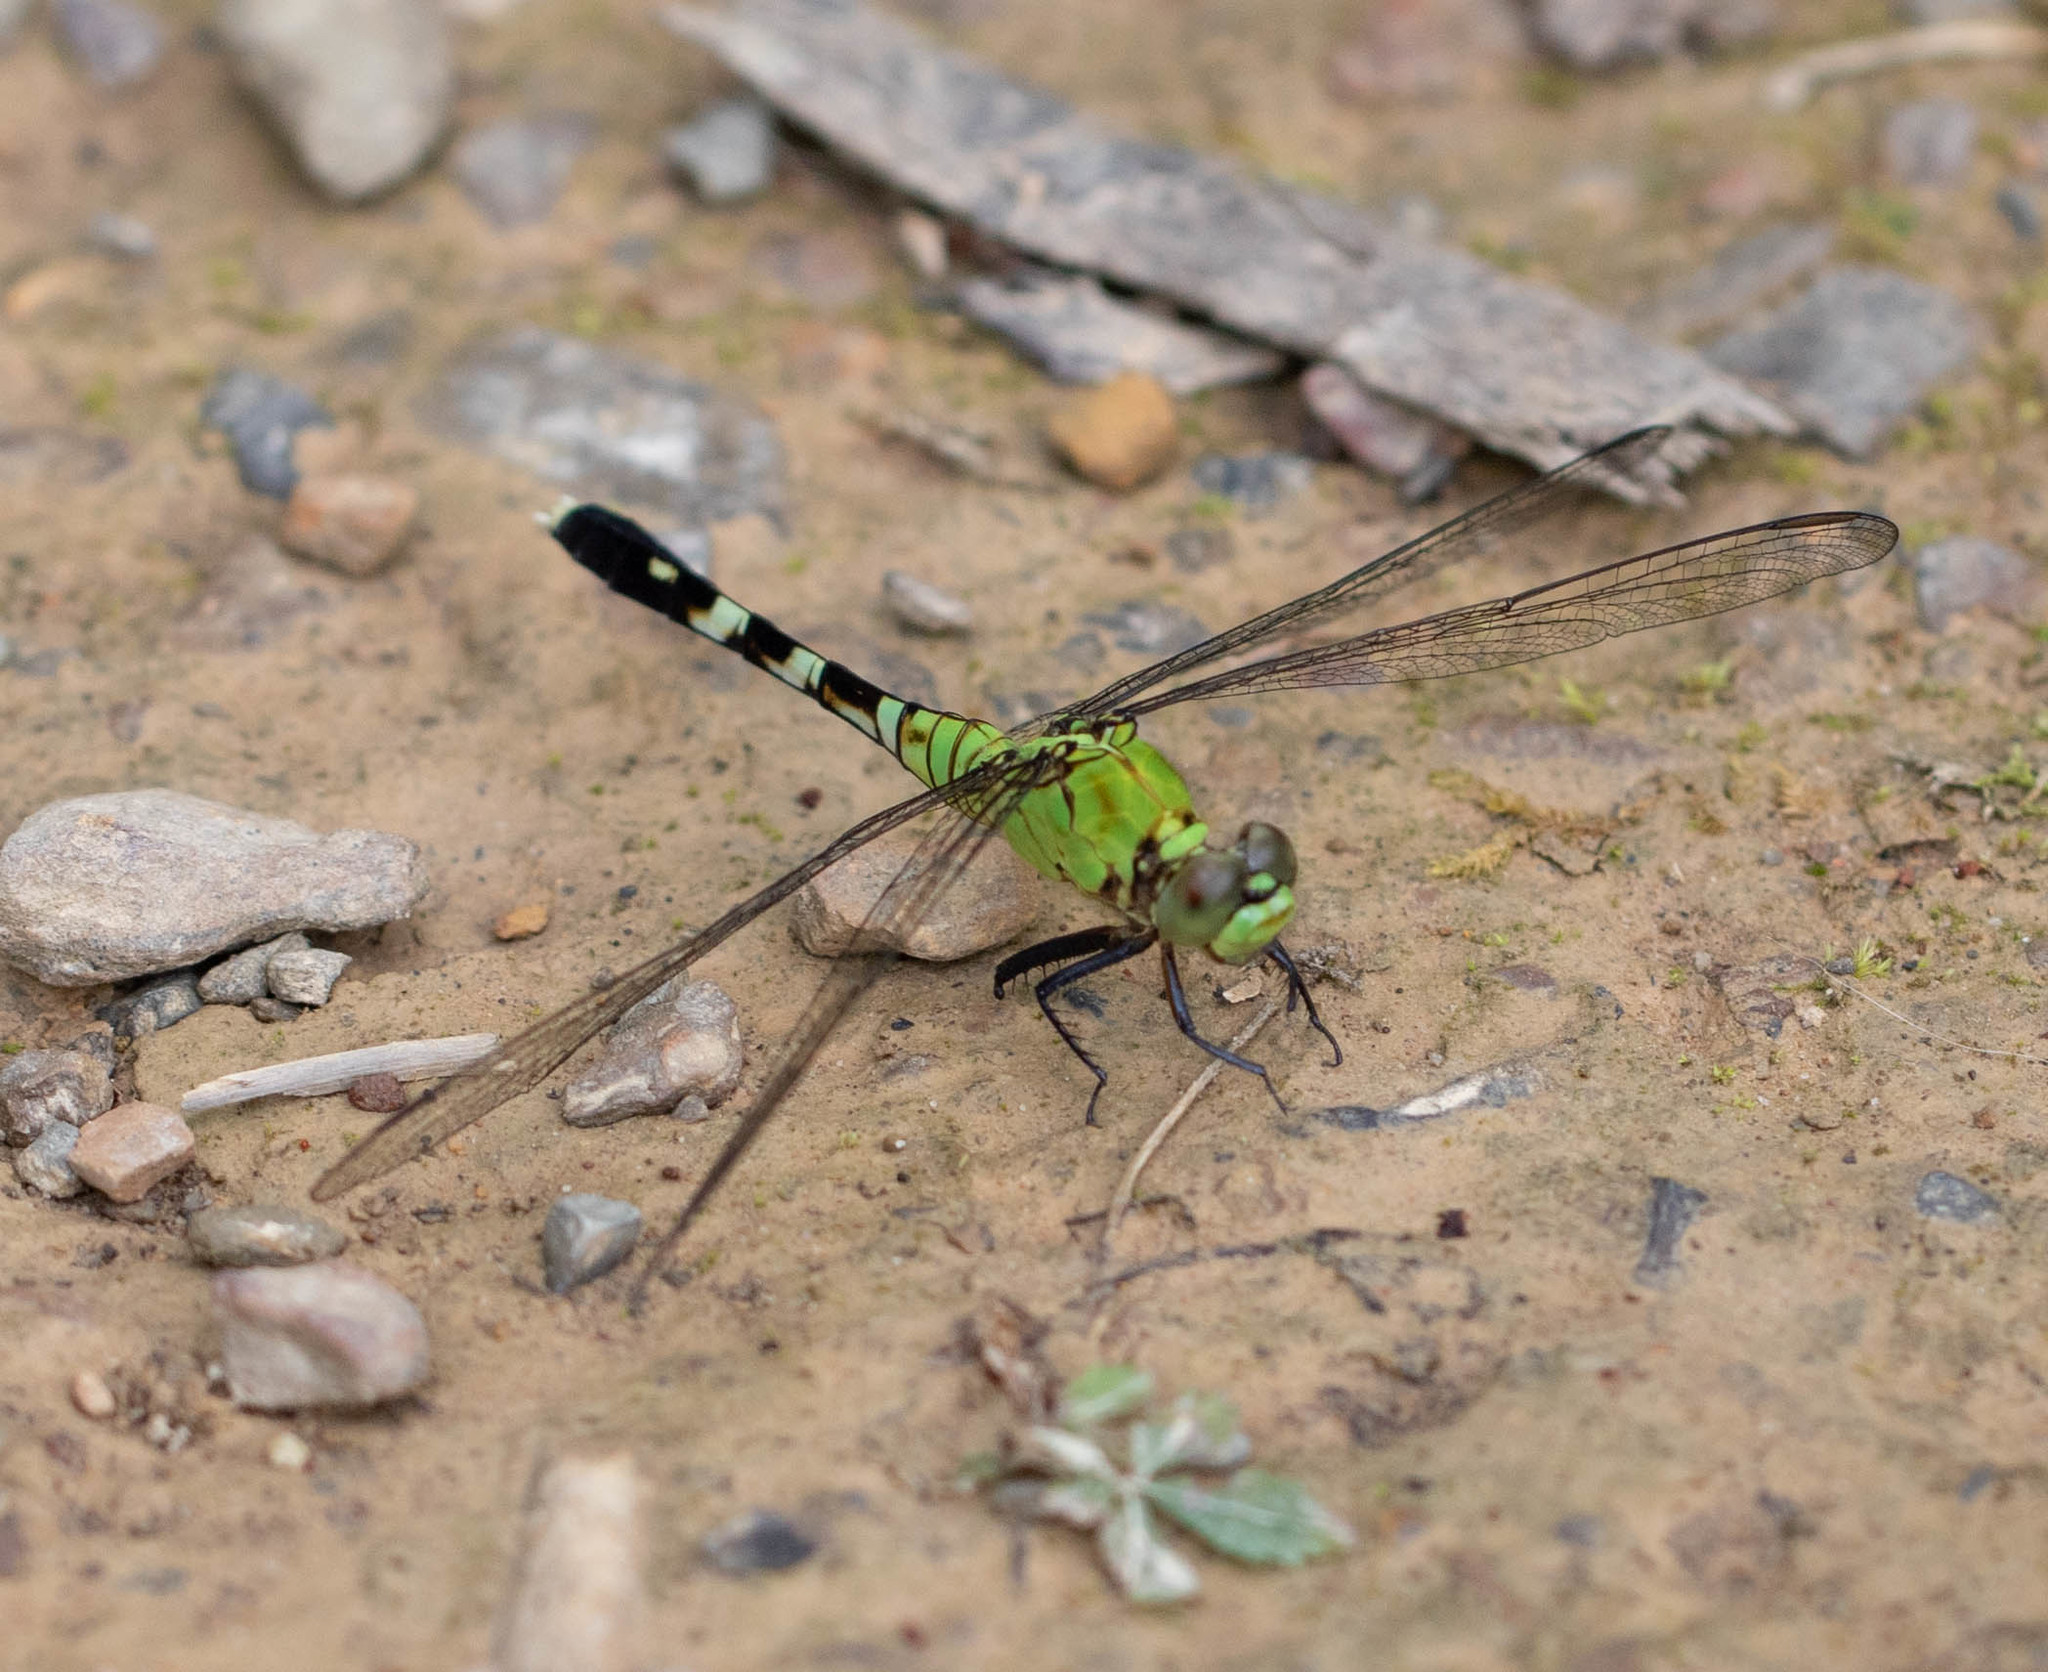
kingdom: Animalia
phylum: Arthropoda
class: Insecta
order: Odonata
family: Libellulidae
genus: Erythemis
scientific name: Erythemis simplicicollis
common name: Eastern pondhawk
